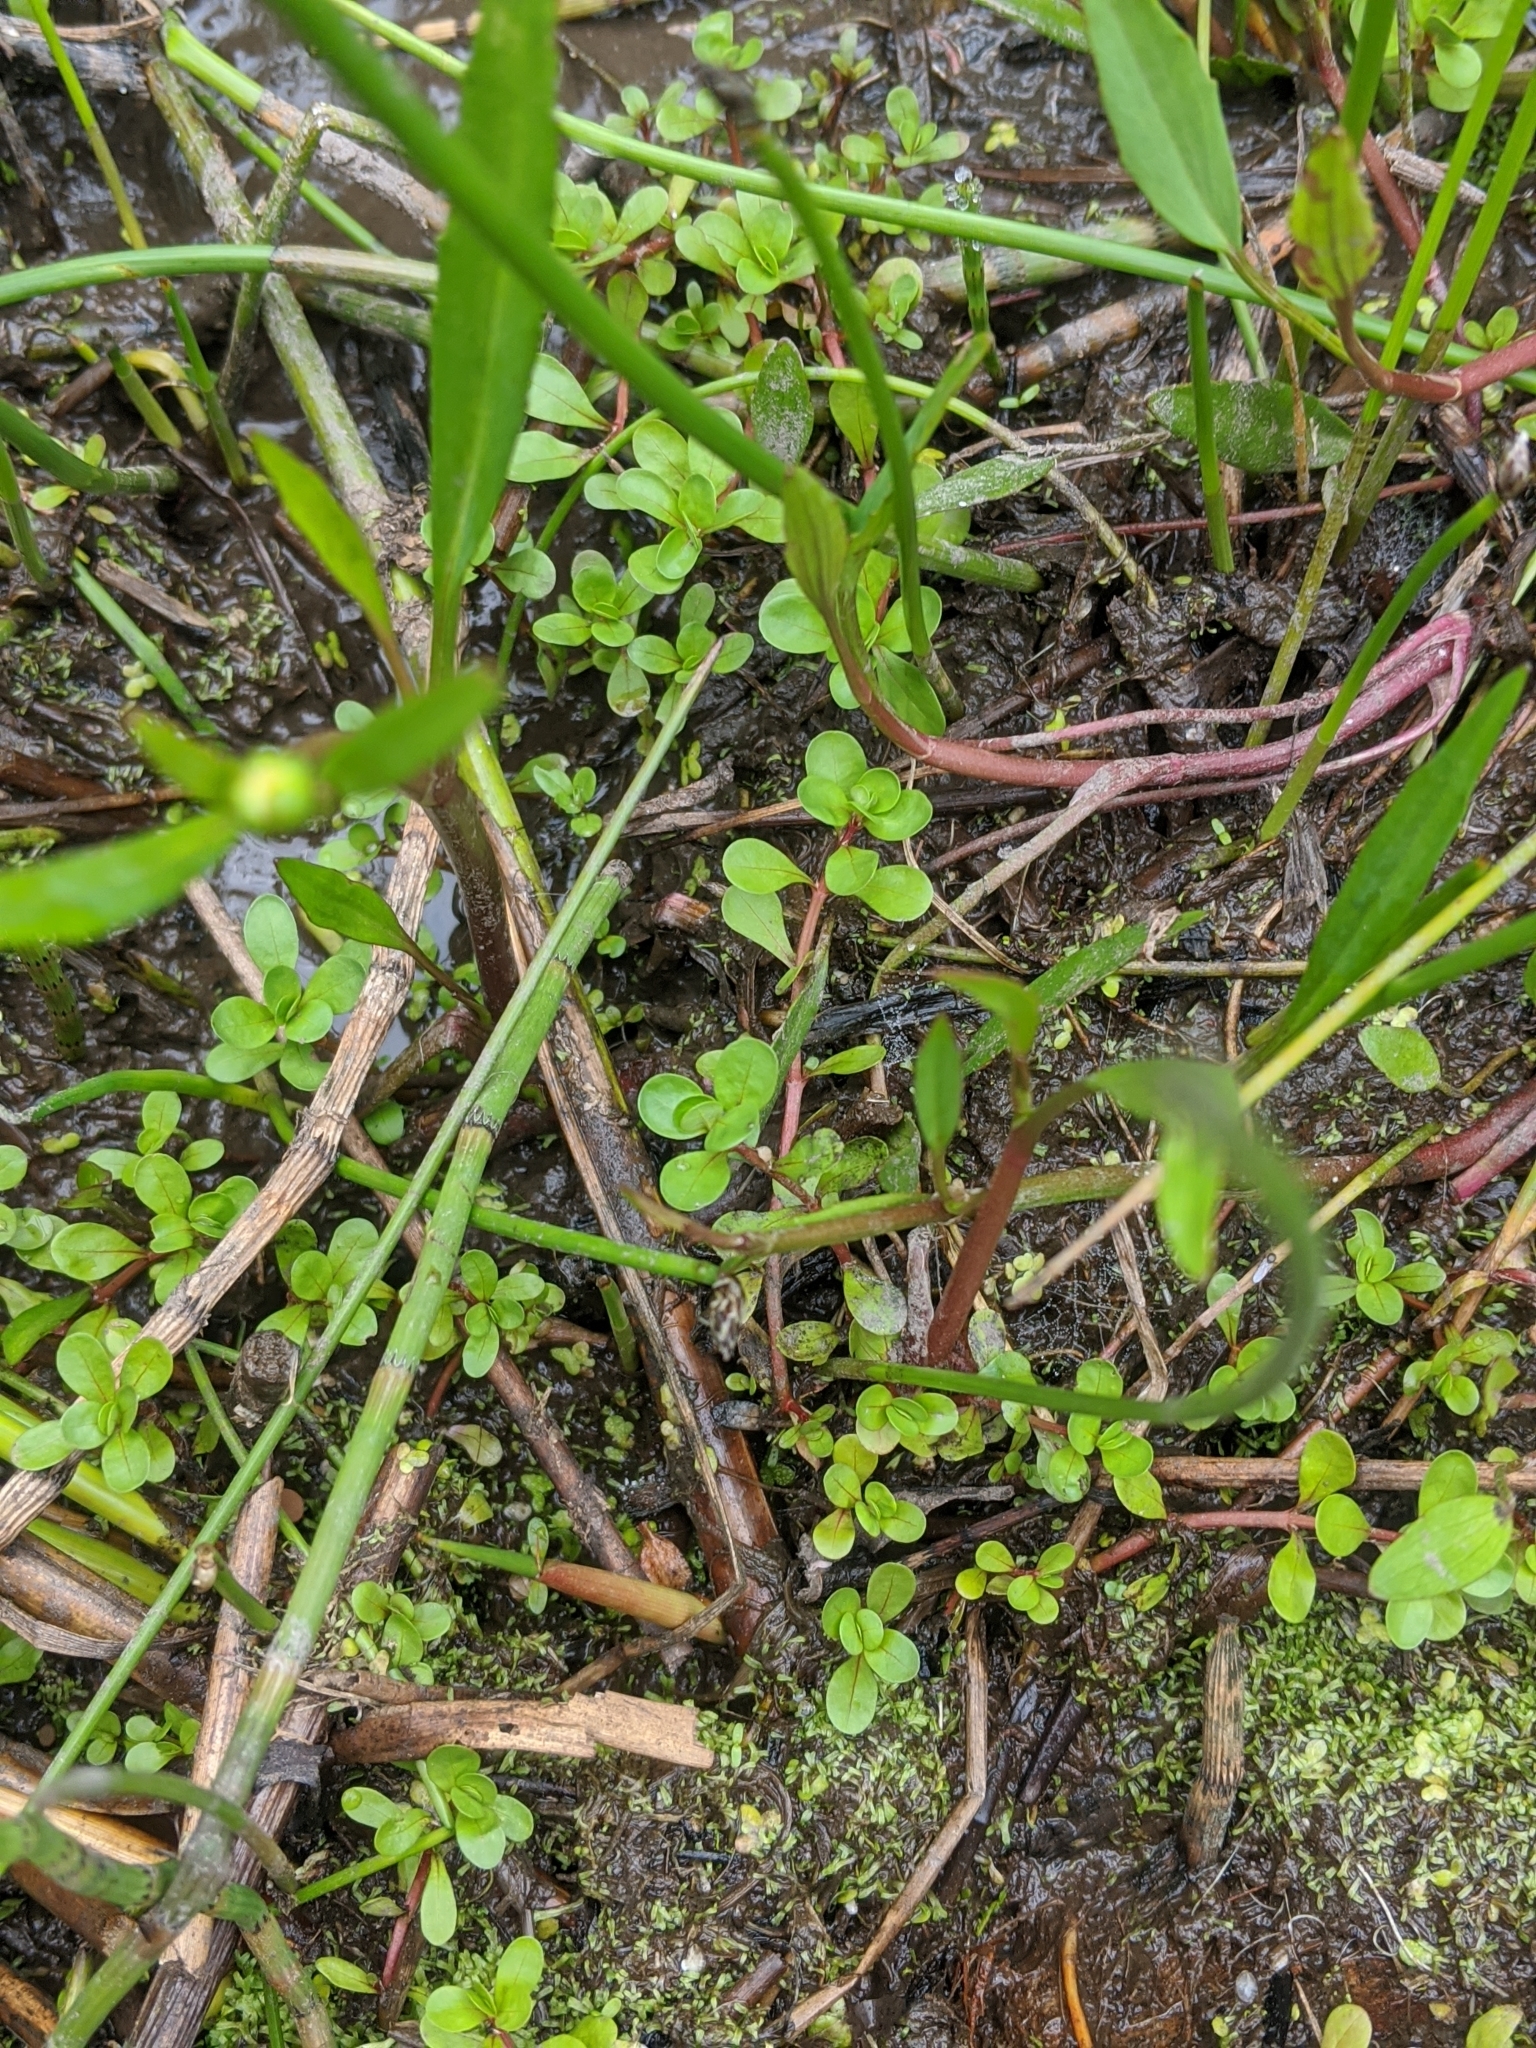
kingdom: Plantae
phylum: Tracheophyta
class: Magnoliopsida
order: Myrtales
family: Lythraceae
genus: Lythrum
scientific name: Lythrum portula
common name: Water purslane
